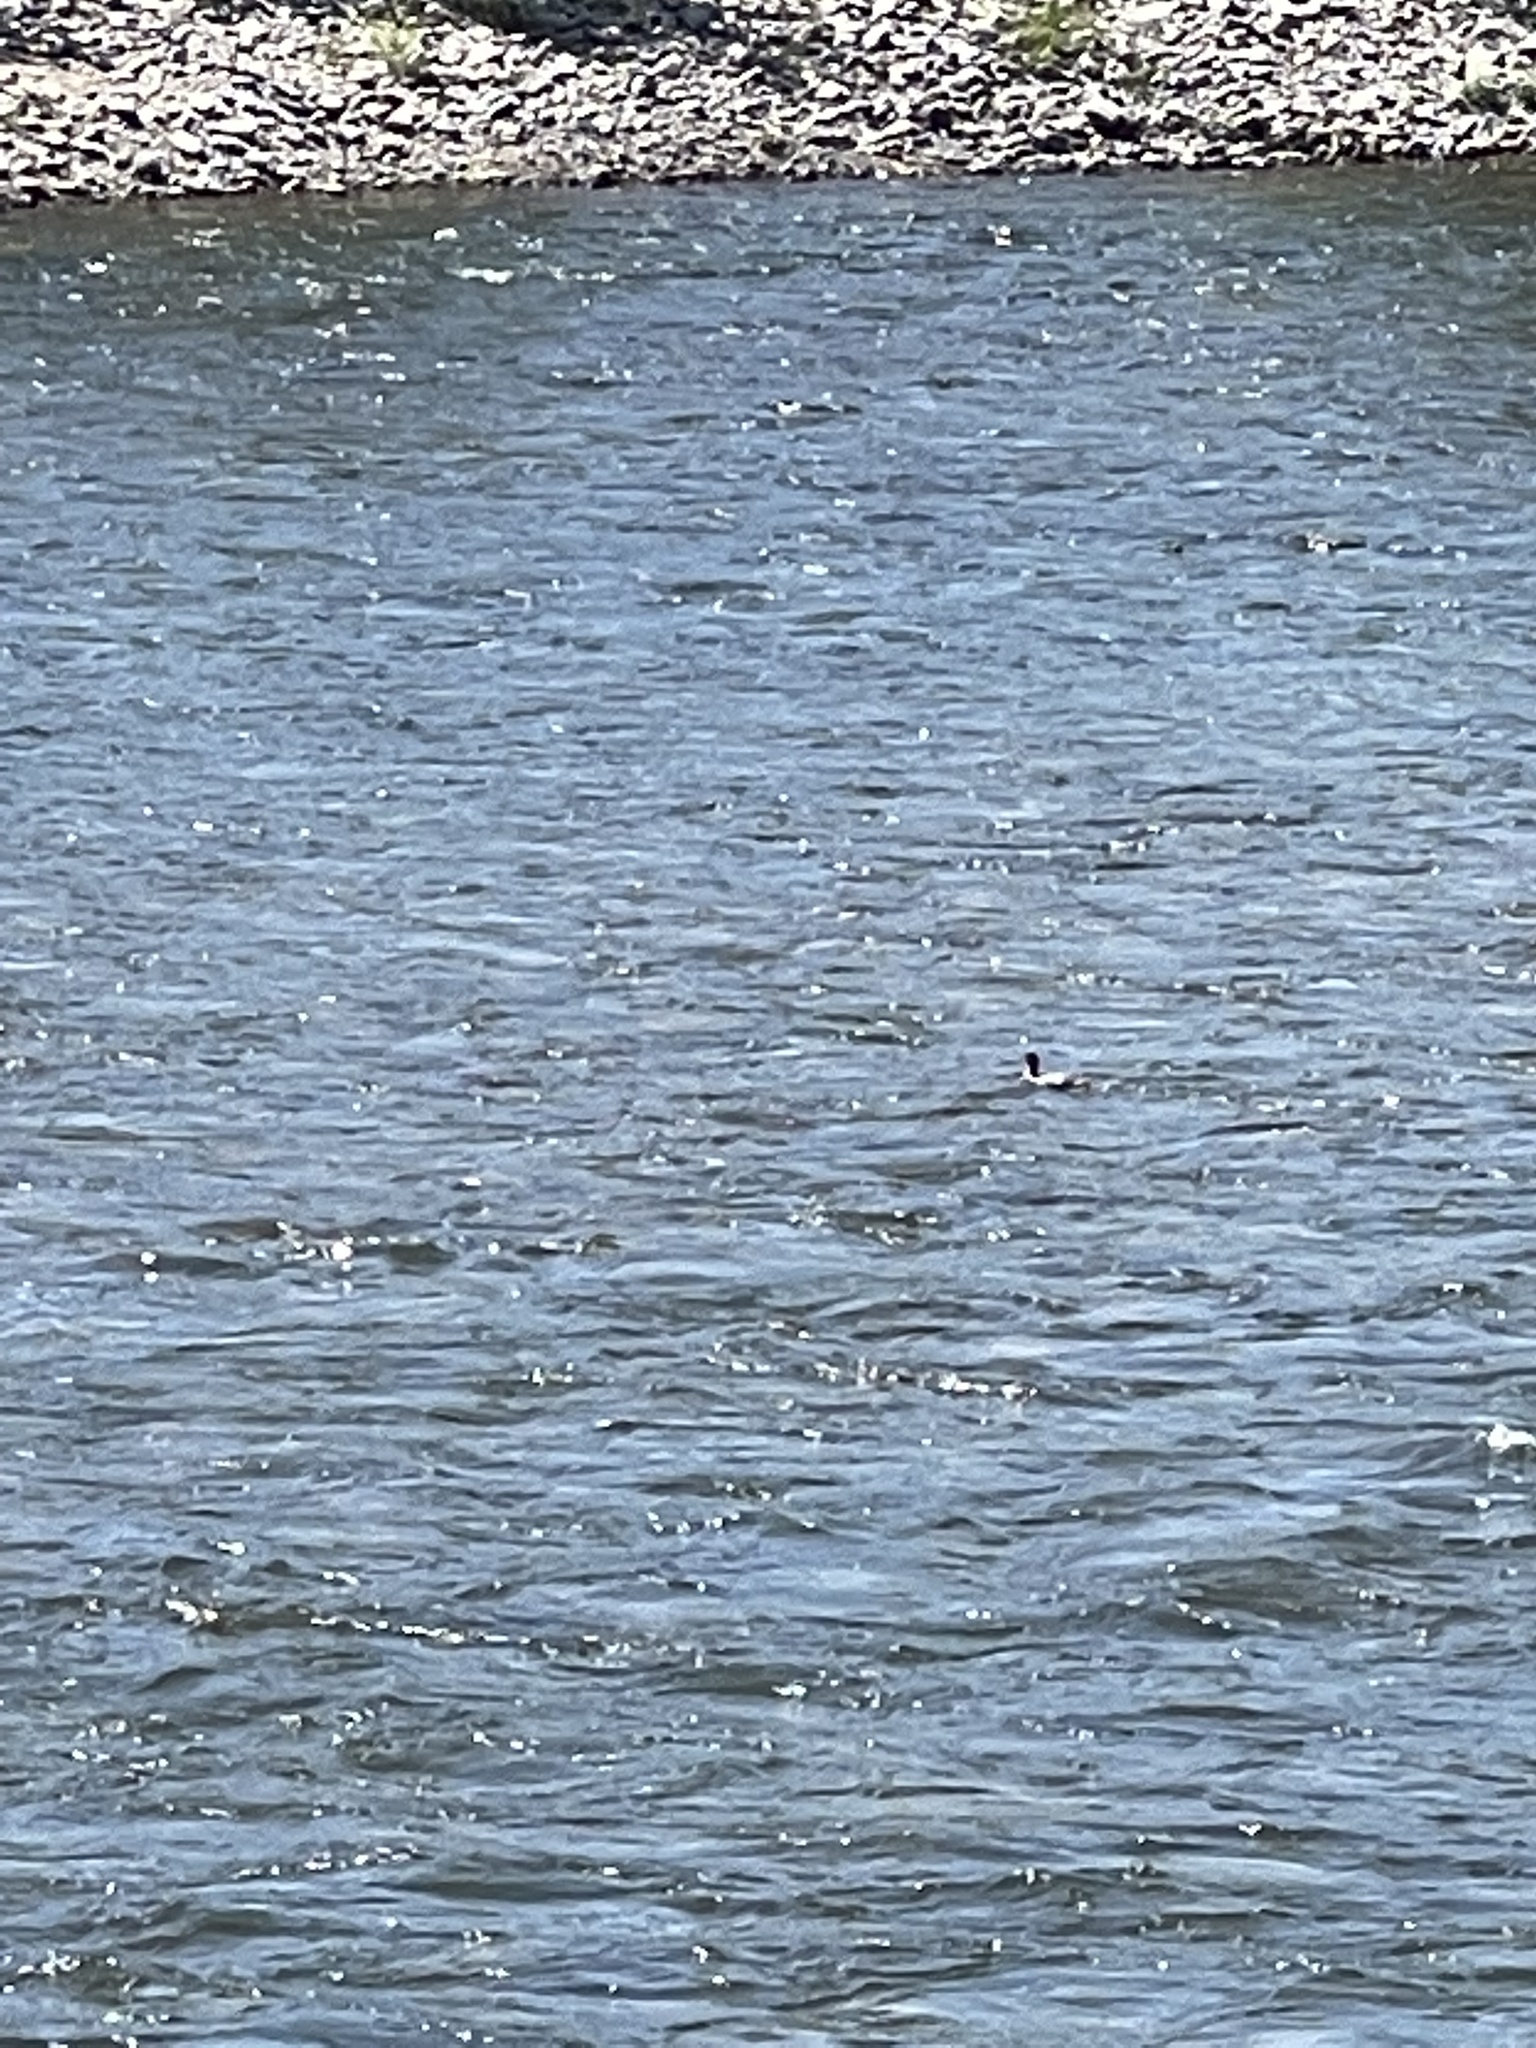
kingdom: Animalia
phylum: Chordata
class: Aves
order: Anseriformes
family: Anatidae
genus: Mergus
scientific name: Mergus merganser
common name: Common merganser
